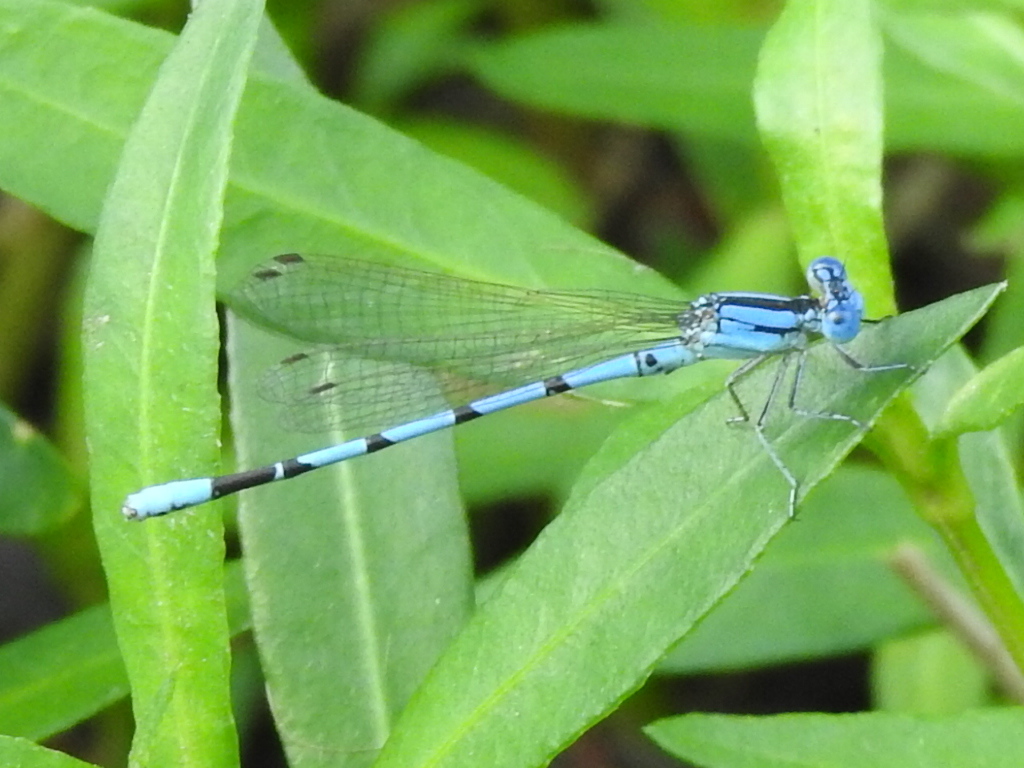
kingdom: Animalia
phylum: Arthropoda
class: Insecta
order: Odonata
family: Coenagrionidae
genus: Argia
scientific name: Argia nahuana
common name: Aztec dancer
